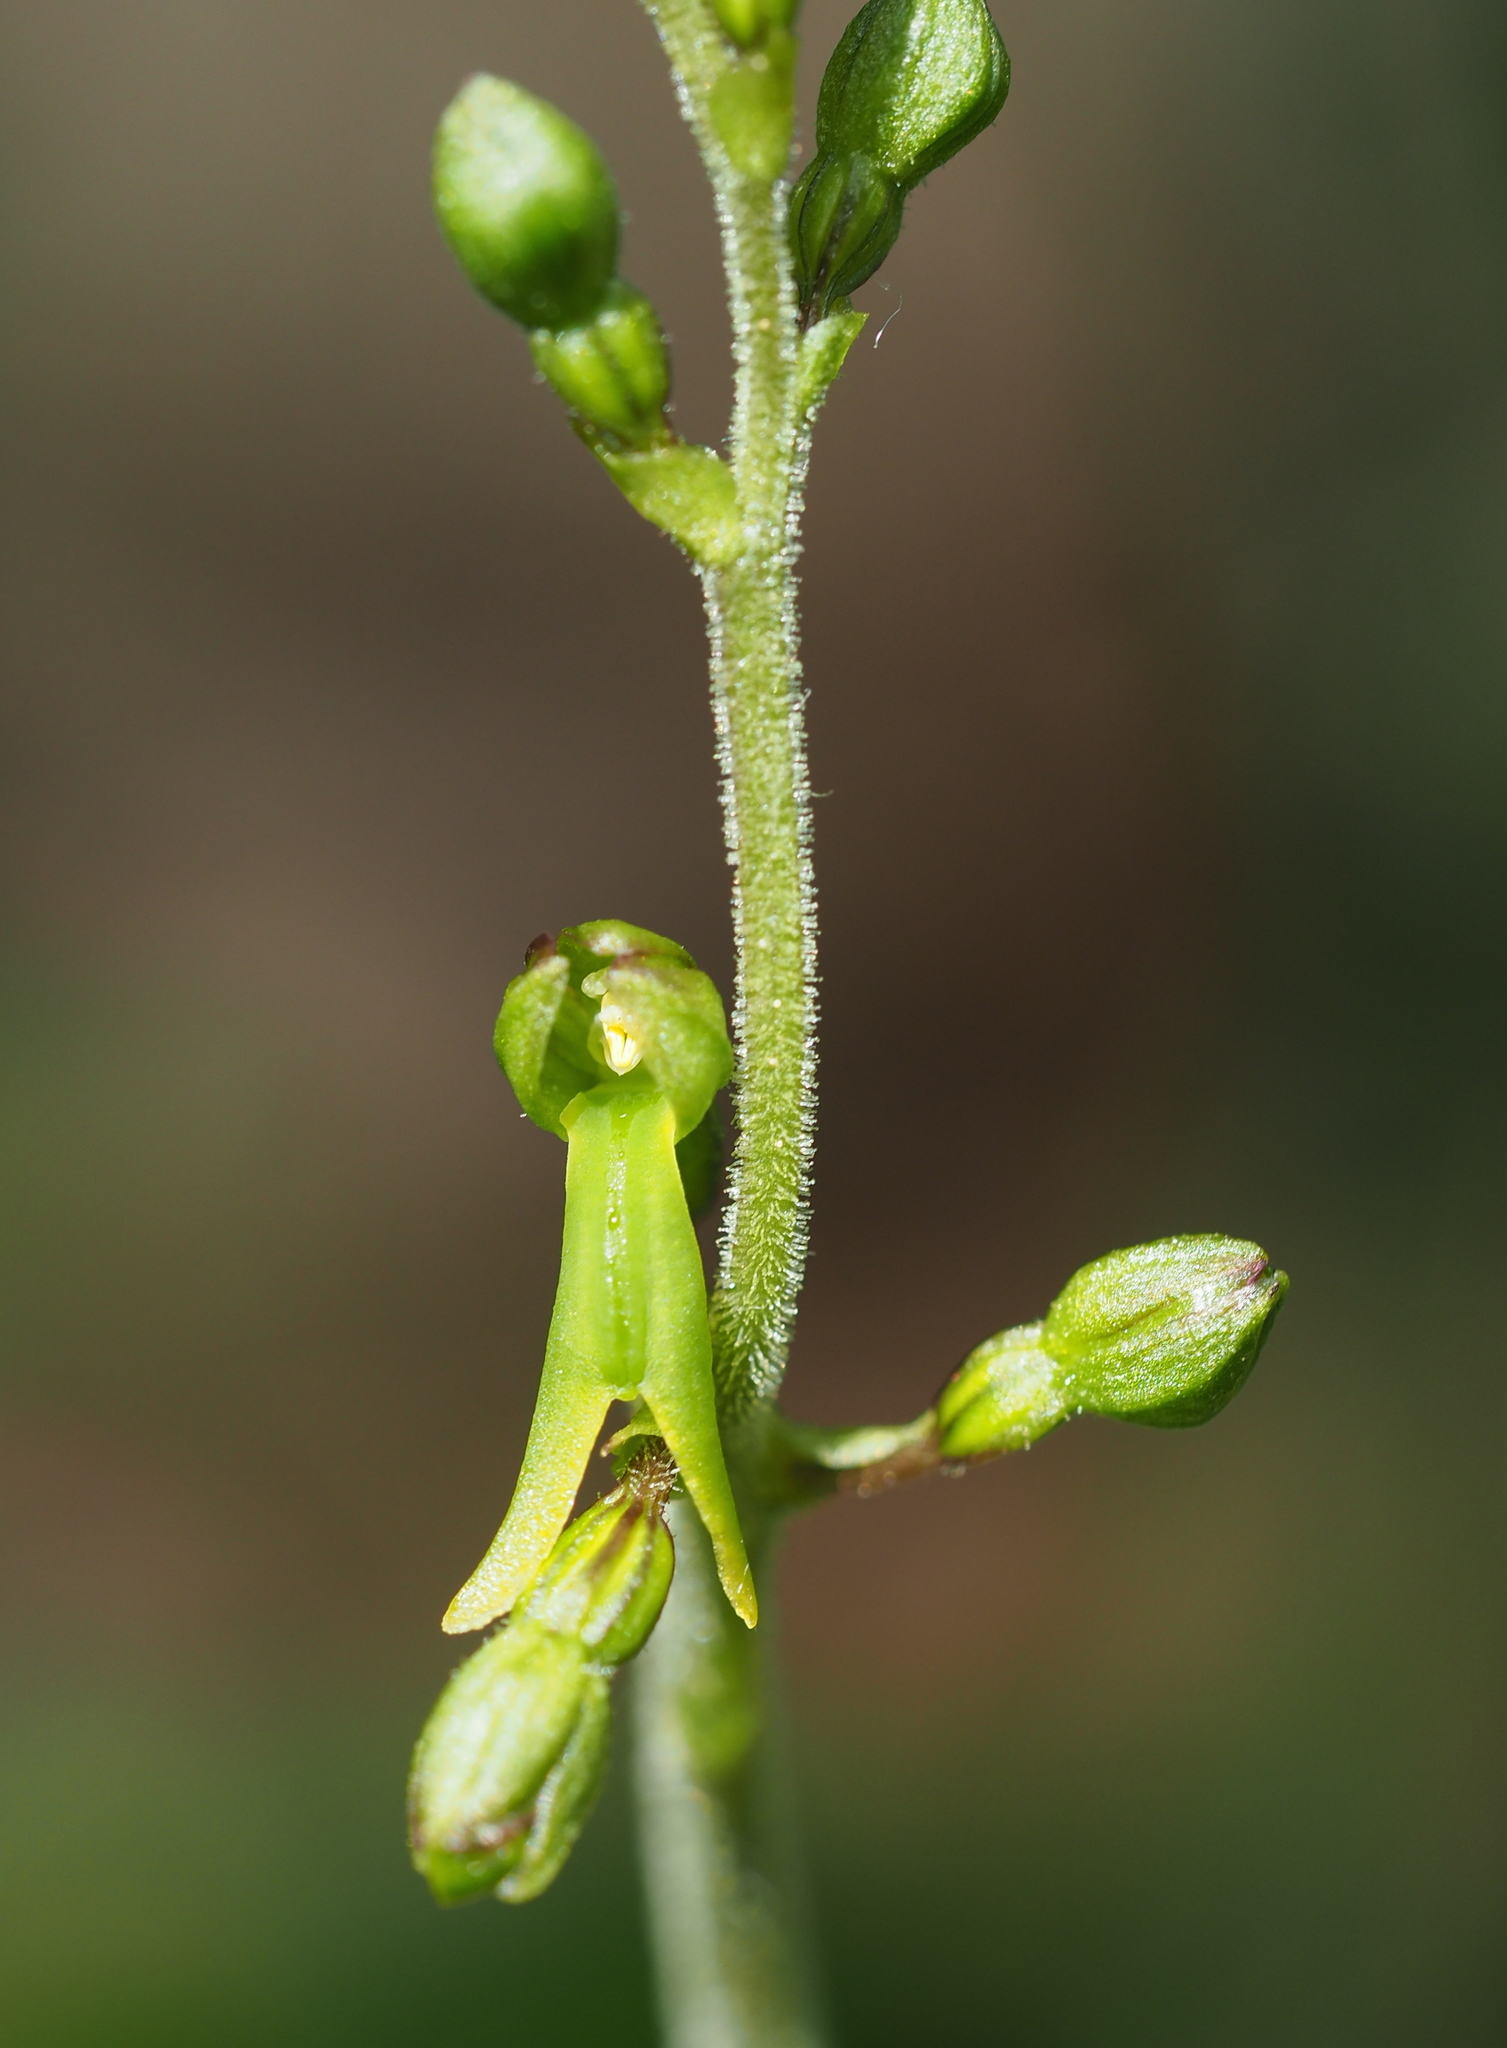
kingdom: Plantae
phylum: Tracheophyta
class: Liliopsida
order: Asparagales
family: Orchidaceae
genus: Neottia
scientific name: Neottia ovata
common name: Common twayblade
